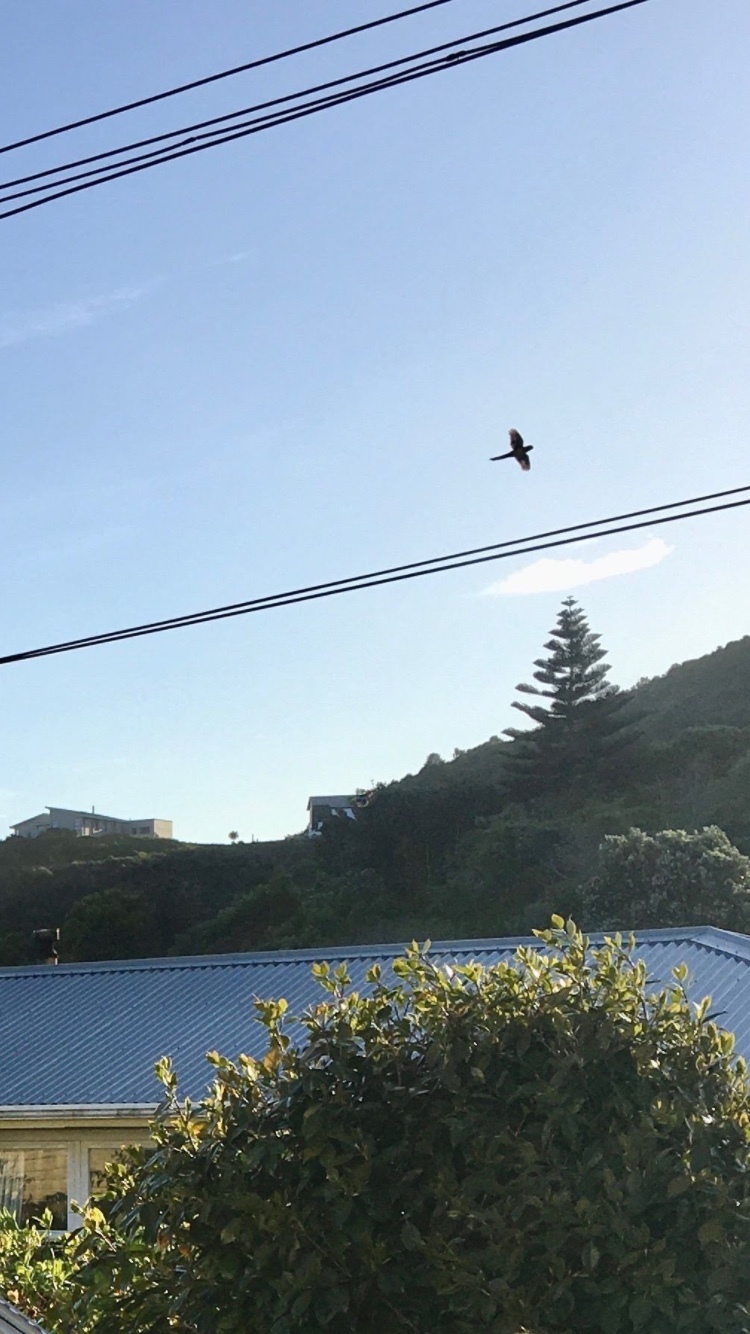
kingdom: Animalia
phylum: Chordata
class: Aves
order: Psittaciformes
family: Psittacidae
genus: Cyanoramphus
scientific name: Cyanoramphus novaezelandiae
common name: Red-fronted parakeet
